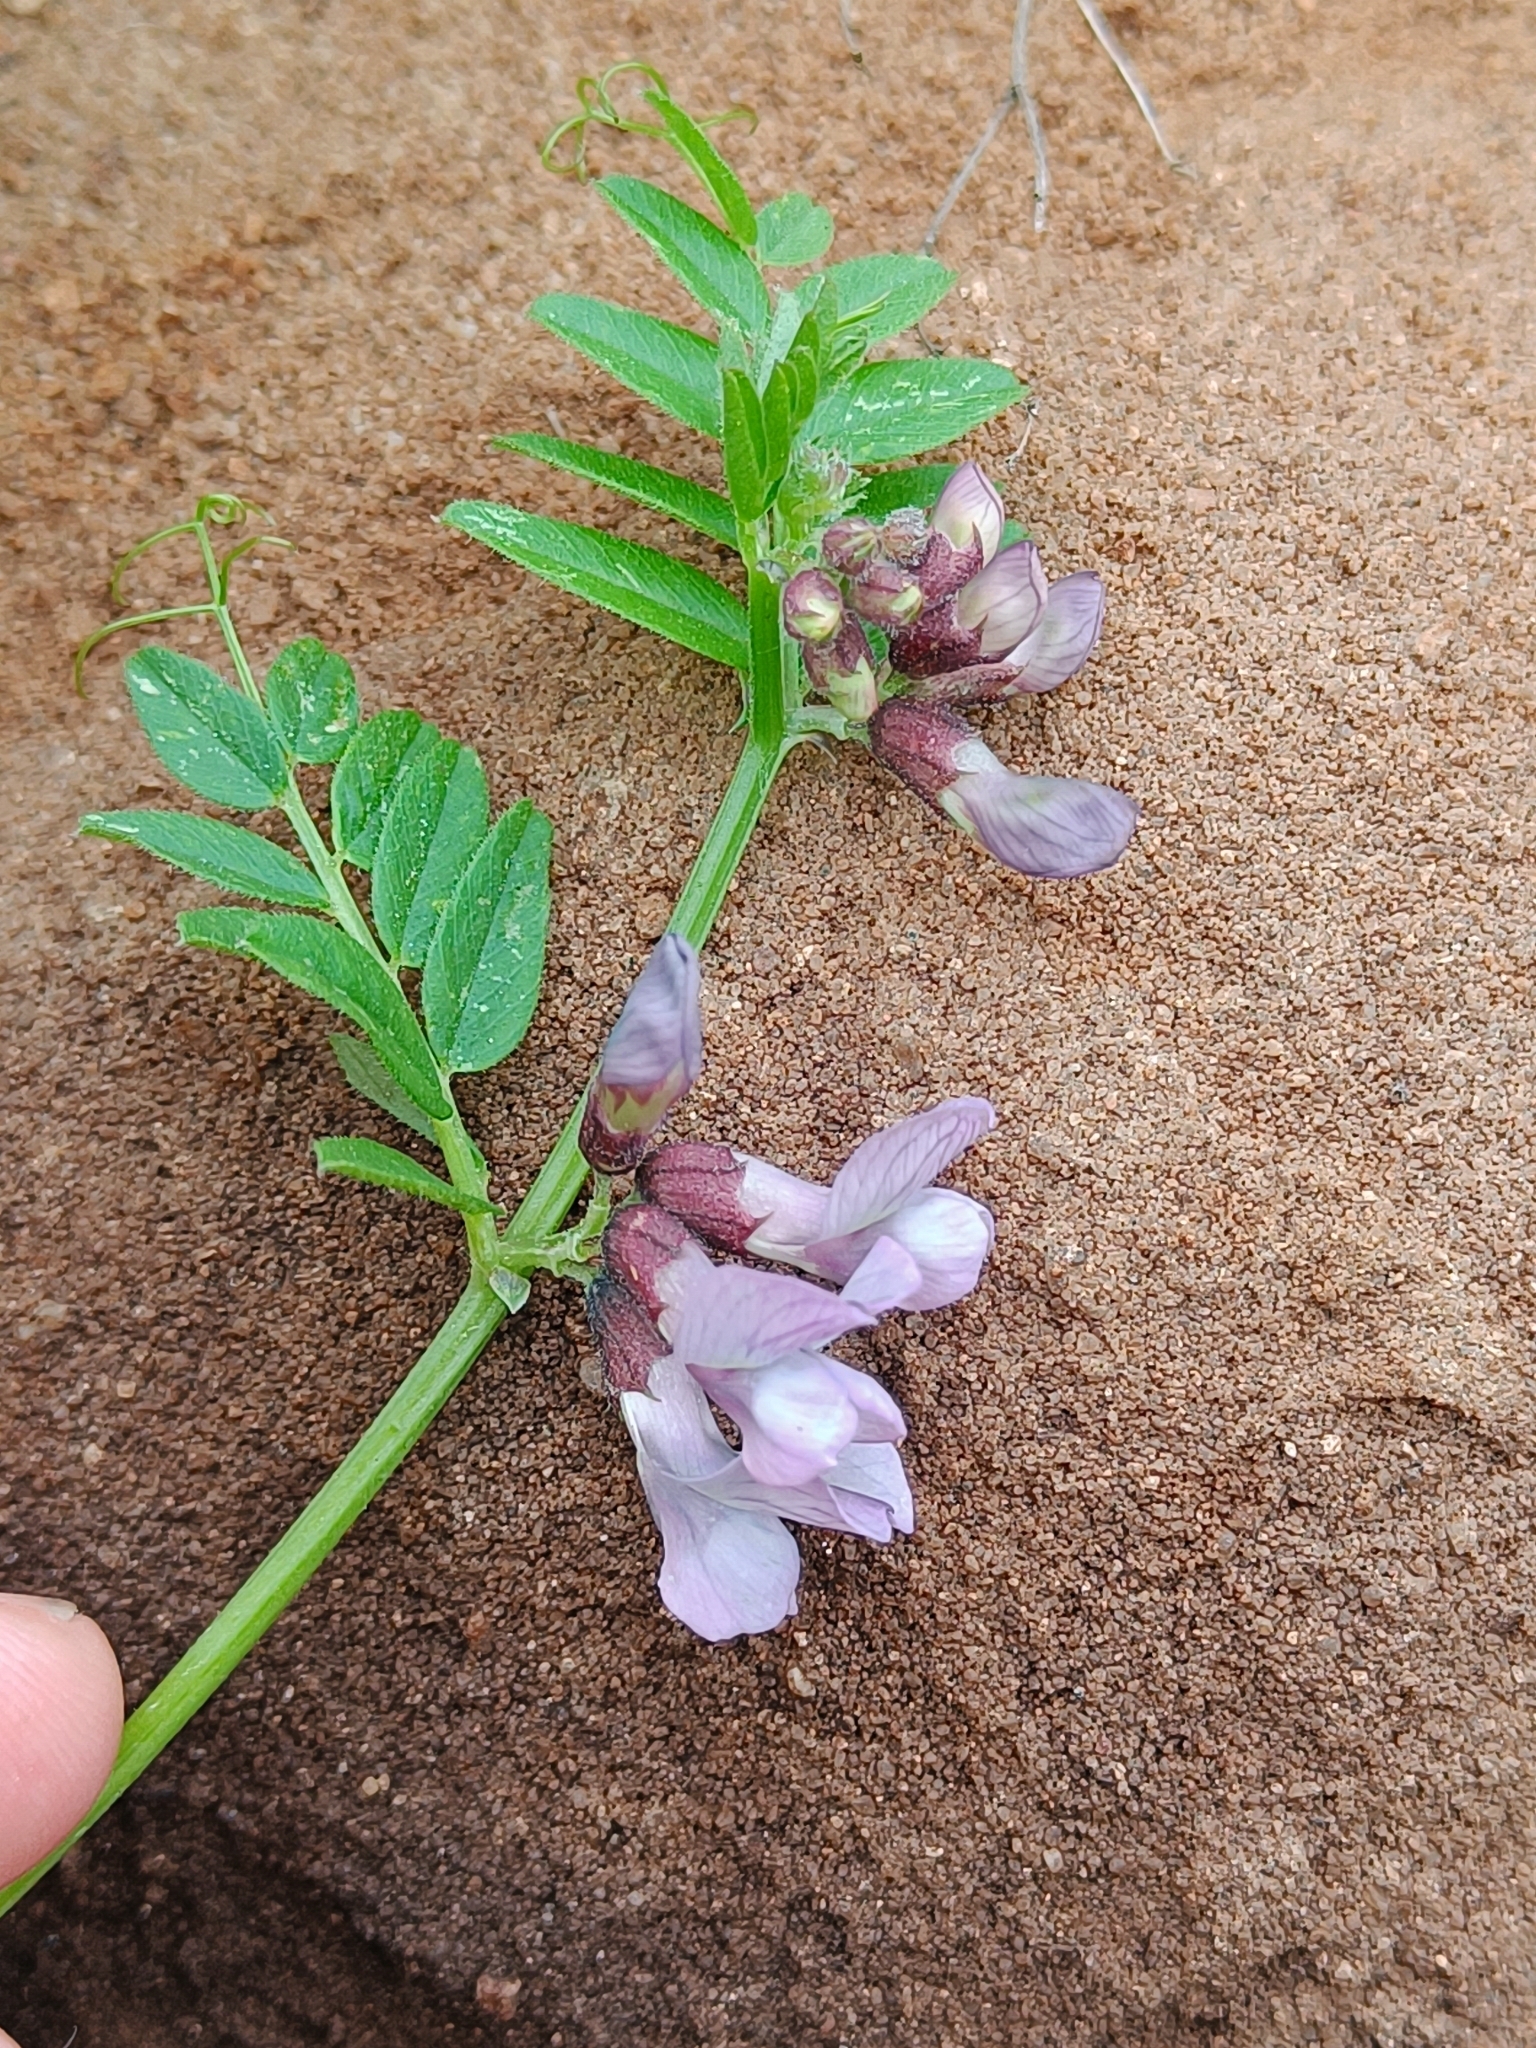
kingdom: Plantae
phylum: Tracheophyta
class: Magnoliopsida
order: Fabales
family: Fabaceae
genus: Vicia
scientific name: Vicia sepium
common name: Bush vetch
